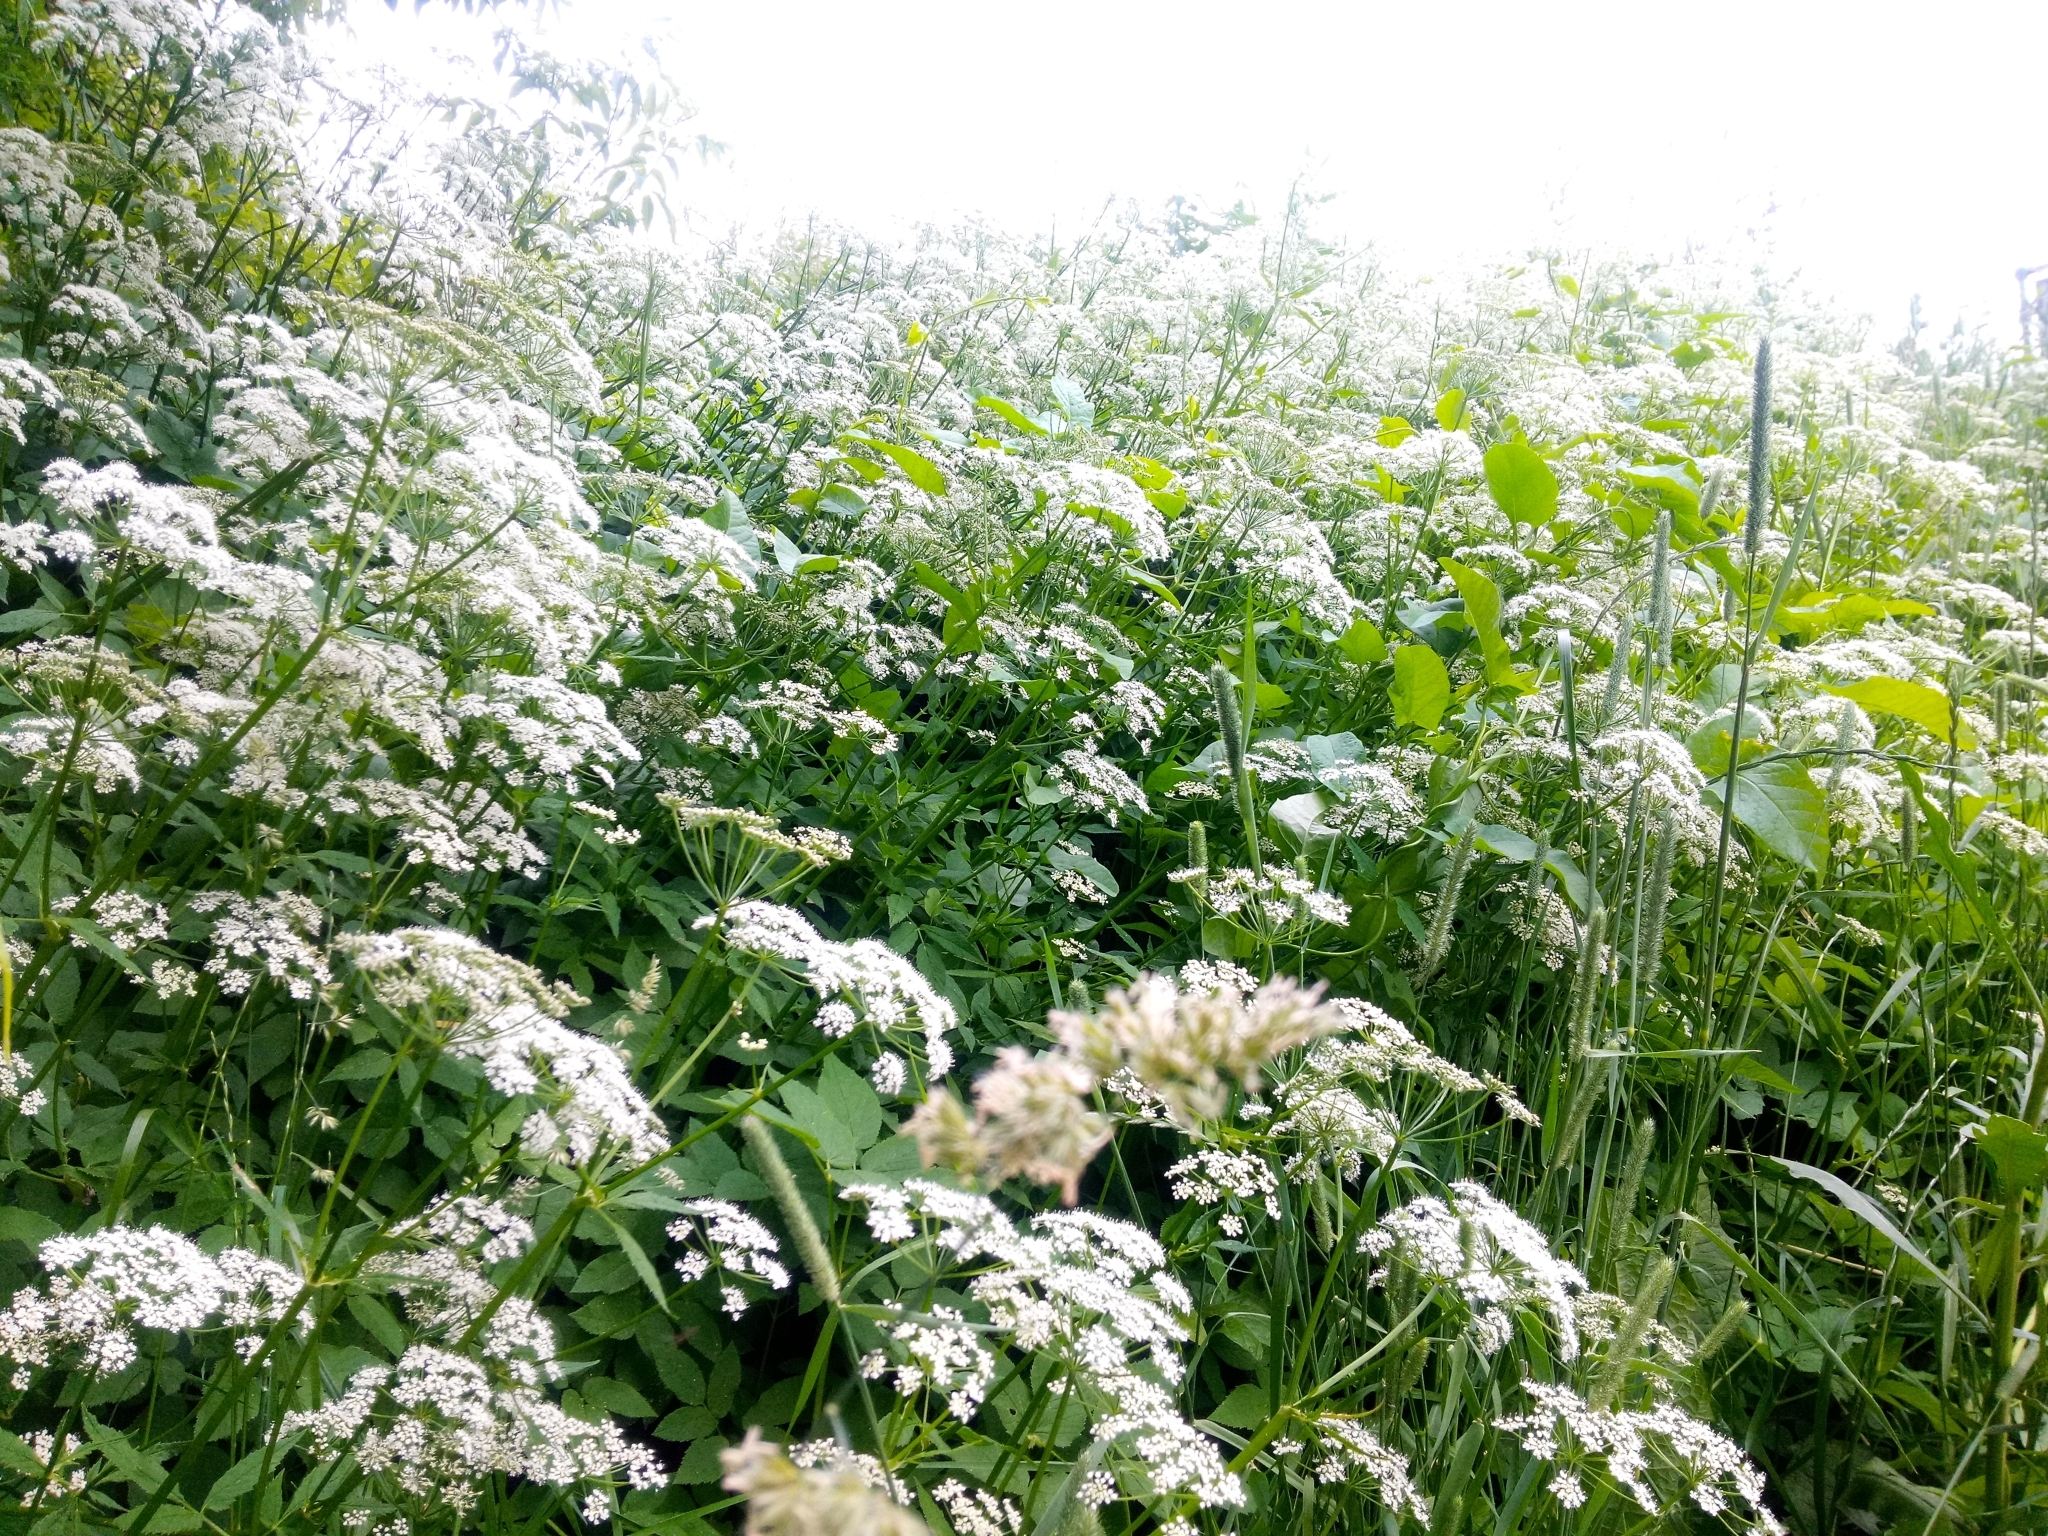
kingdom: Plantae
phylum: Tracheophyta
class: Magnoliopsida
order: Apiales
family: Apiaceae
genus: Aegopodium
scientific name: Aegopodium podagraria
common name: Ground-elder
